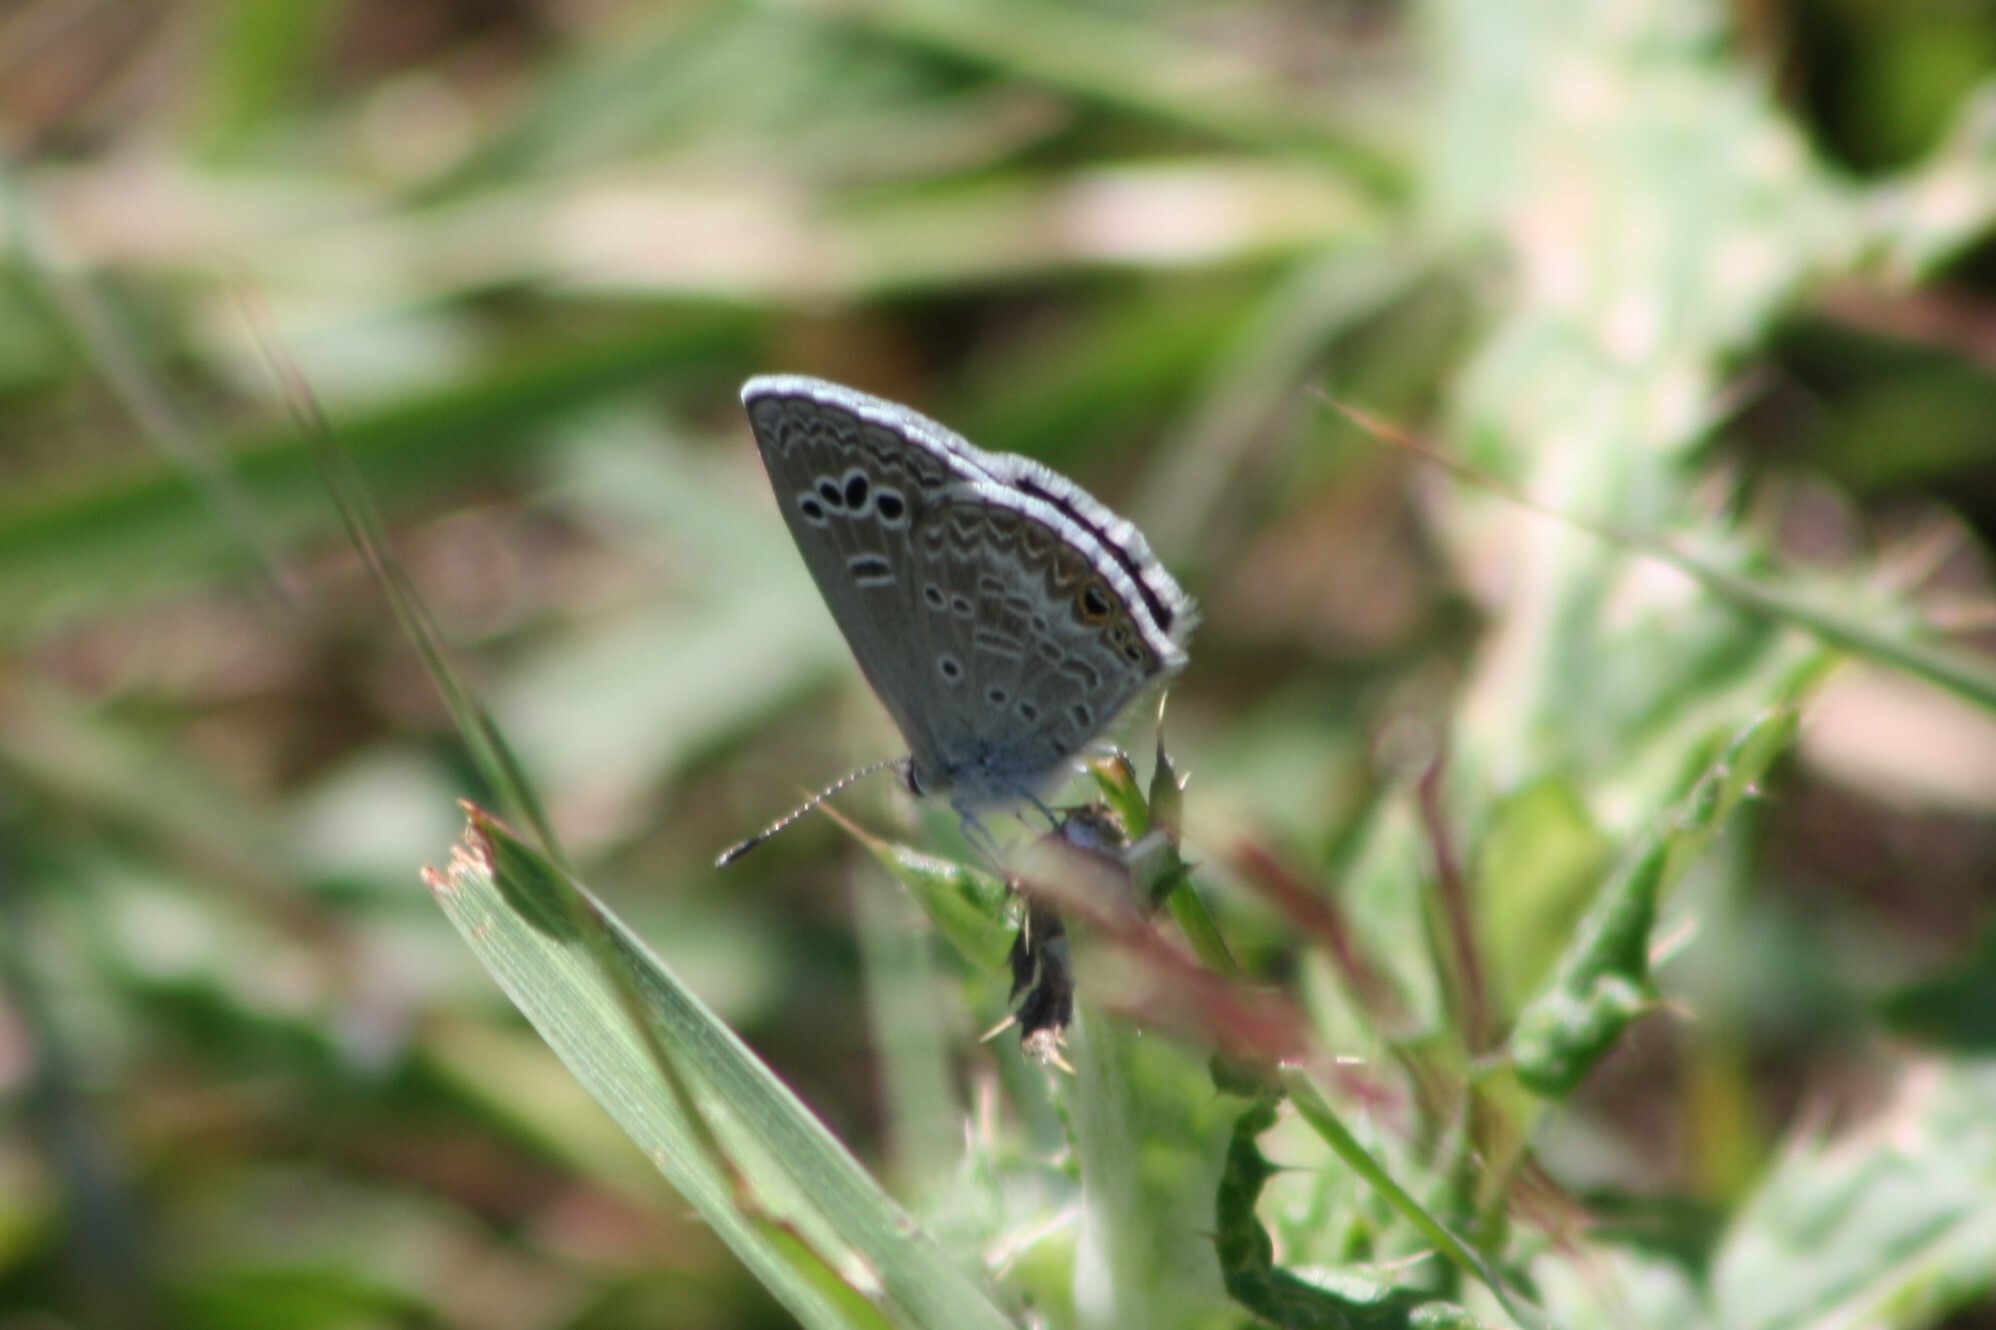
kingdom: Animalia
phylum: Arthropoda
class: Insecta
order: Lepidoptera
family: Lycaenidae
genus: Echinargus
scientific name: Echinargus isola
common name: Reakirt's blue
